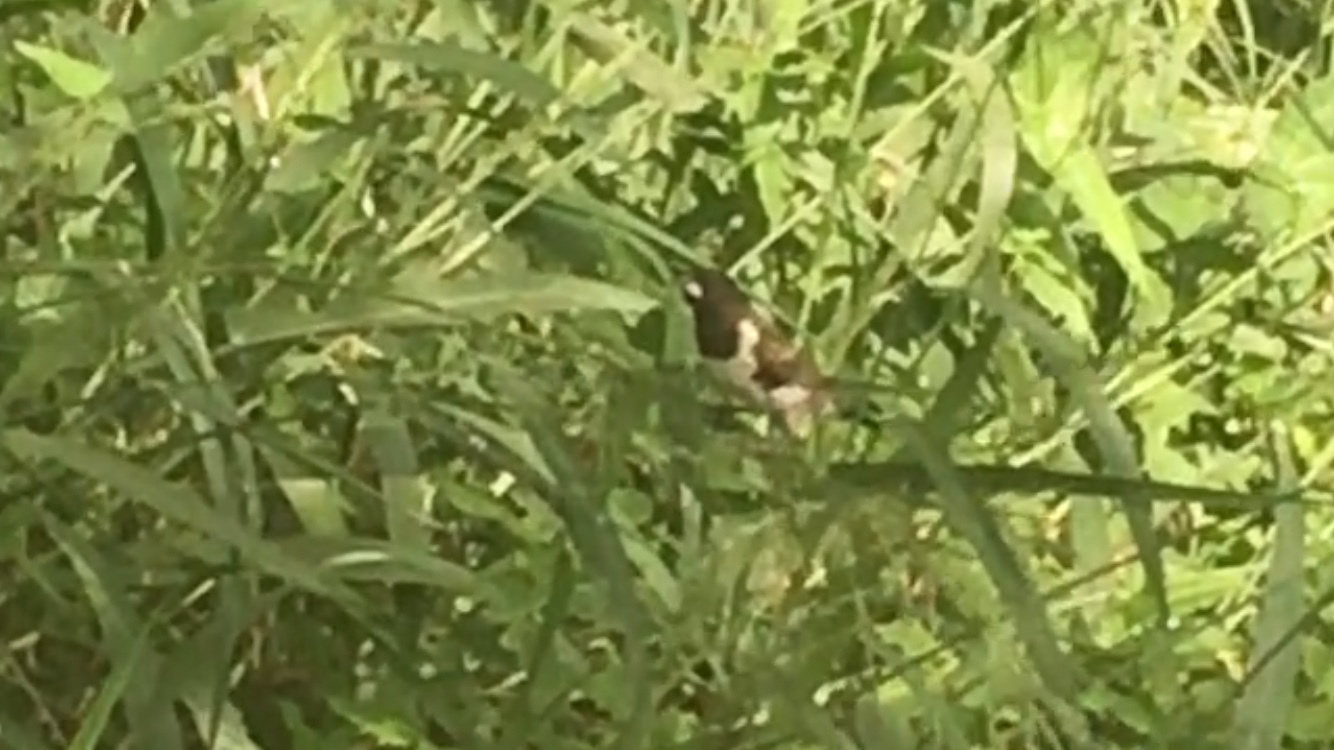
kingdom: Animalia
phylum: Chordata
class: Aves
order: Passeriformes
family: Estrildidae
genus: Lonchura
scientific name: Lonchura cucullata
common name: Bronze mannikin
